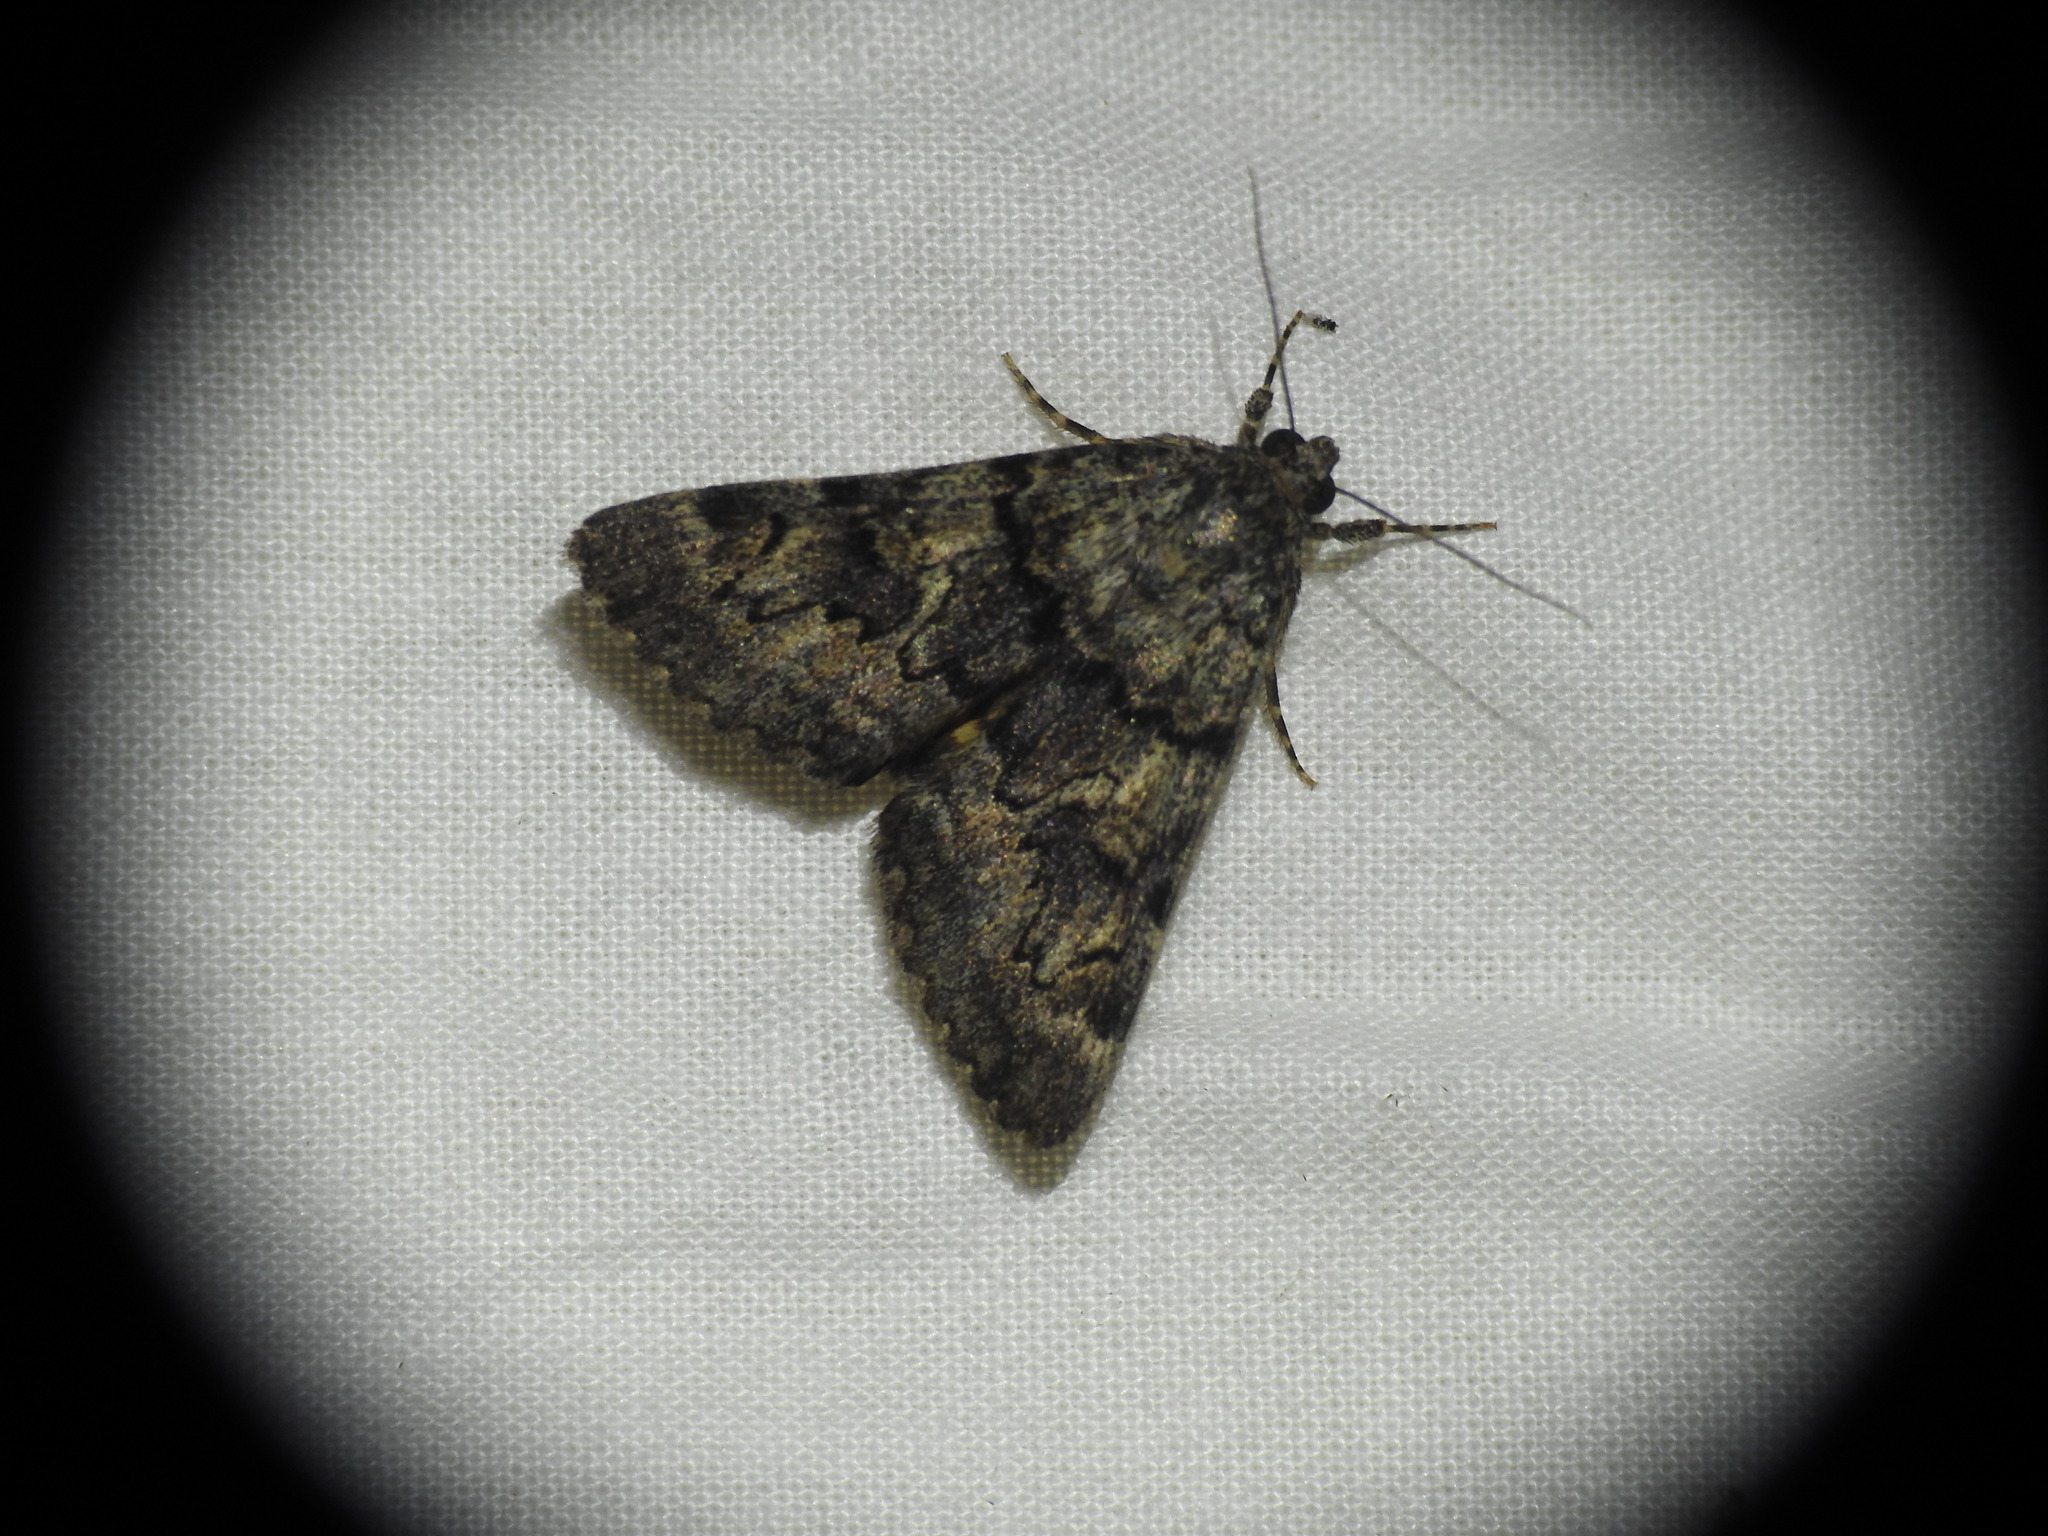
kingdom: Animalia
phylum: Arthropoda
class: Insecta
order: Lepidoptera
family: Erebidae
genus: Catocala
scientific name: Catocala nymphagoga
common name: Oak yellow underwing
